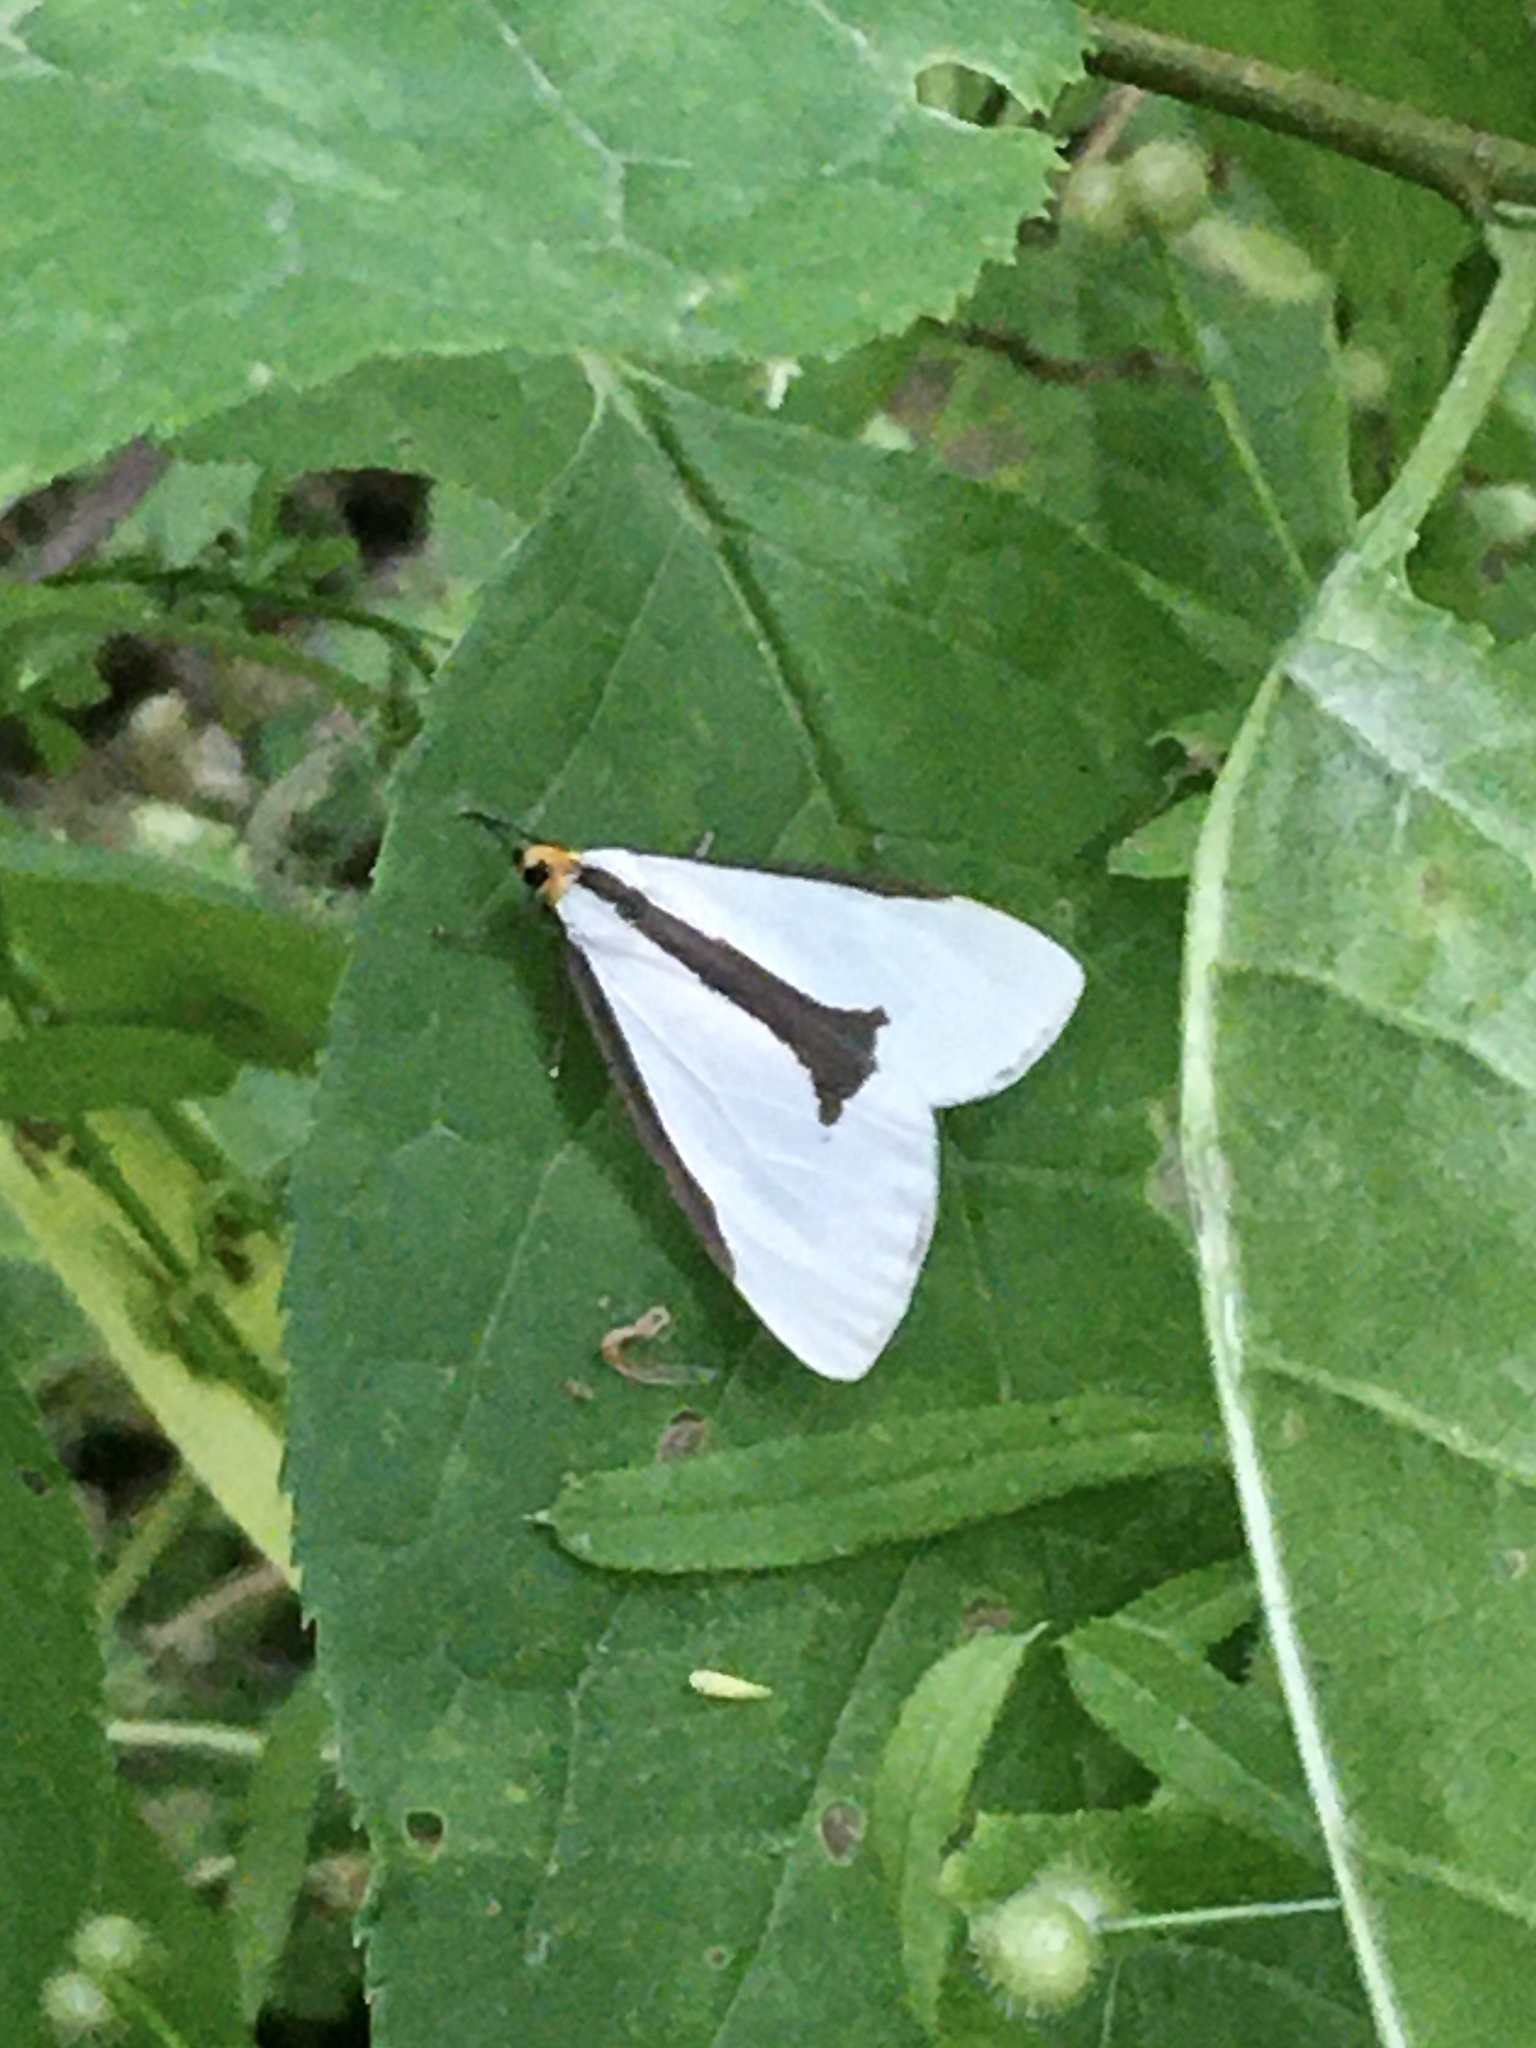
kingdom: Animalia
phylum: Arthropoda
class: Insecta
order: Lepidoptera
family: Erebidae
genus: Haploa
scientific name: Haploa lecontei
